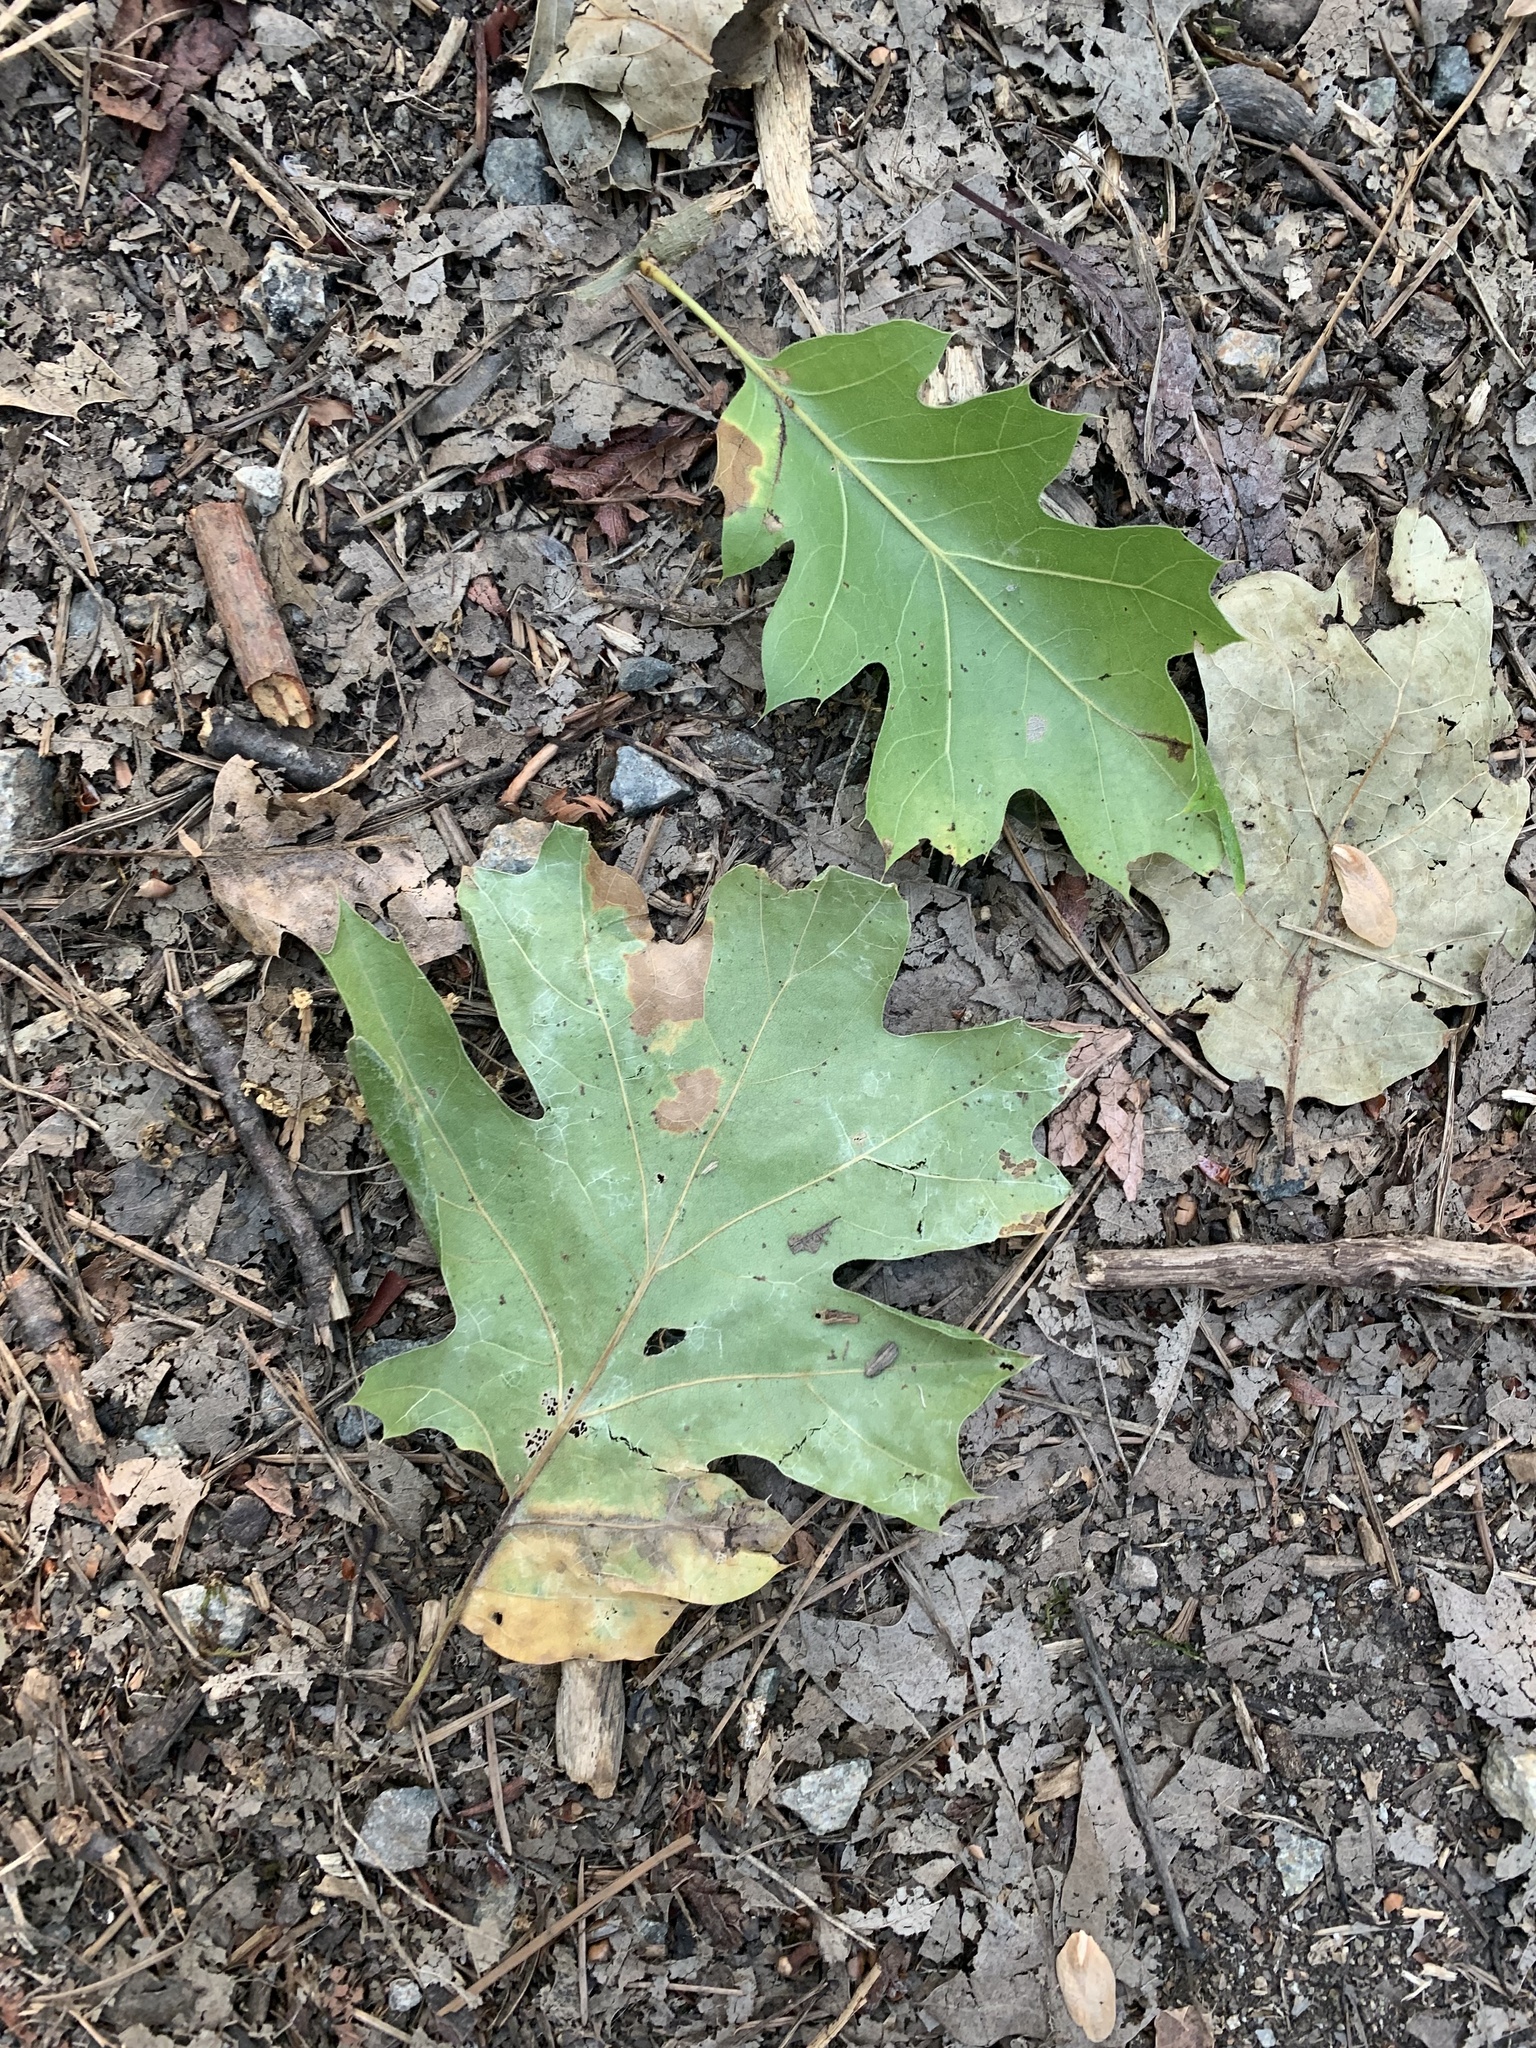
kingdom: Plantae
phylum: Tracheophyta
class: Magnoliopsida
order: Fagales
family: Fagaceae
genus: Quercus
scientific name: Quercus kelloggii
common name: California black oak
